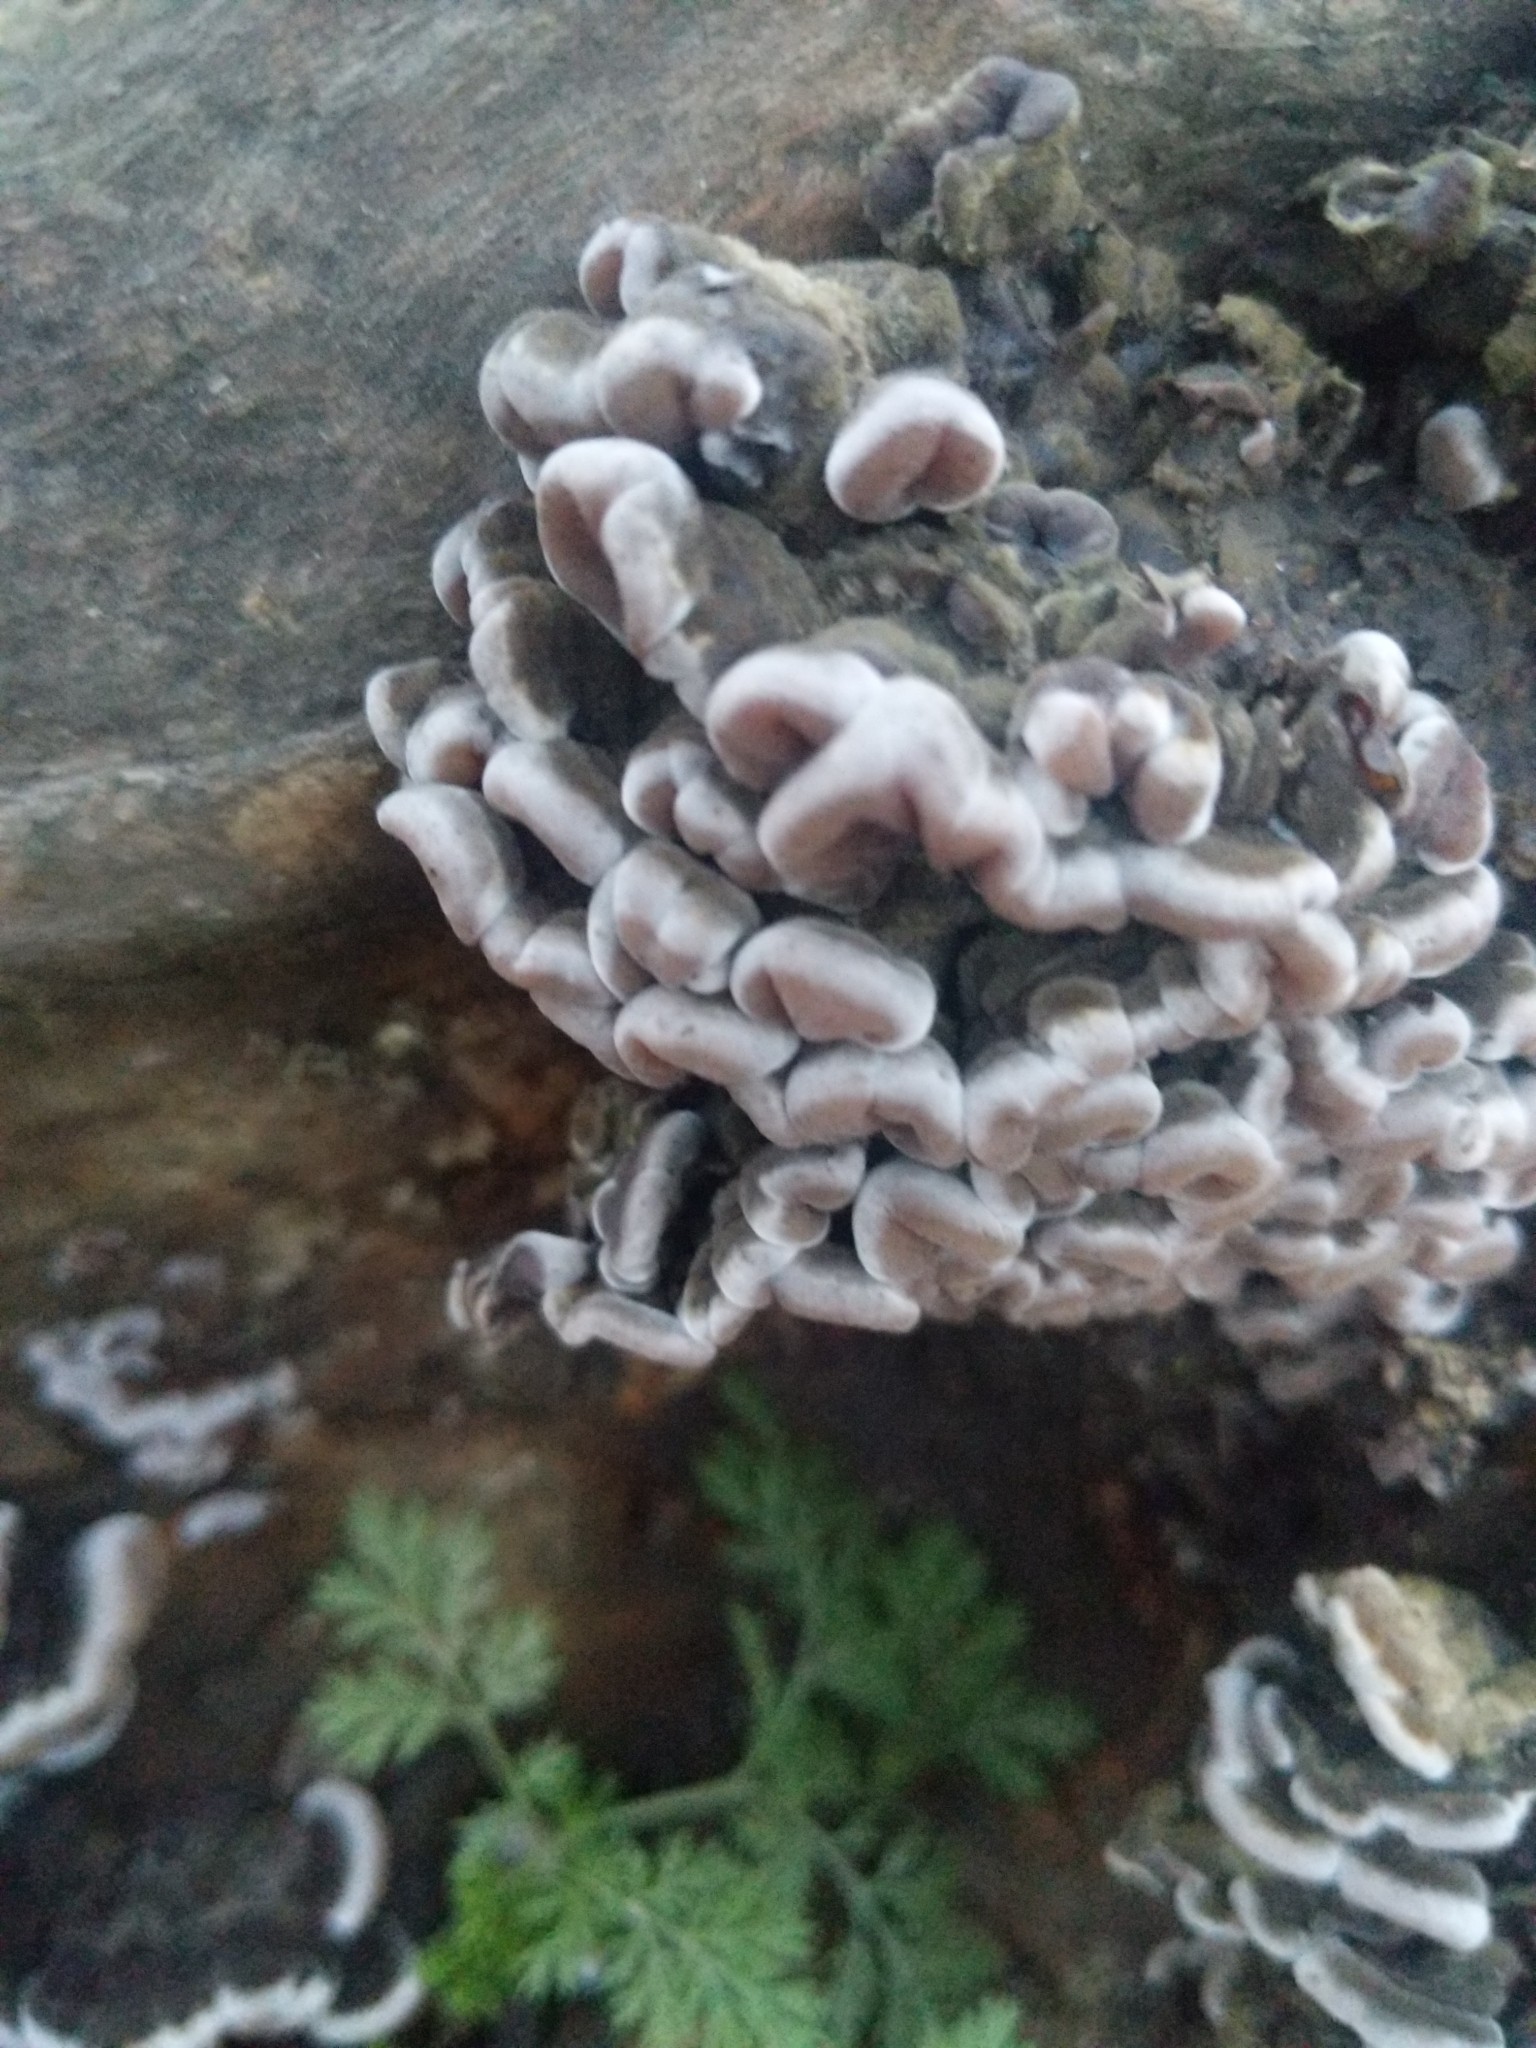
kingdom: Fungi
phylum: Basidiomycota
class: Agaricomycetes
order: Auriculariales
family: Auriculariaceae
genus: Auricularia
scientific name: Auricularia mesenterica
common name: Tripe fungus
